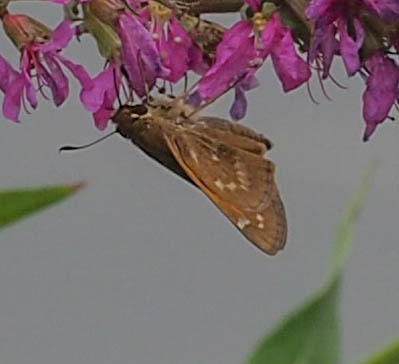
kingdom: Animalia
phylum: Arthropoda
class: Insecta
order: Lepidoptera
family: Hesperiidae
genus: Atalopedes
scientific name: Atalopedes
